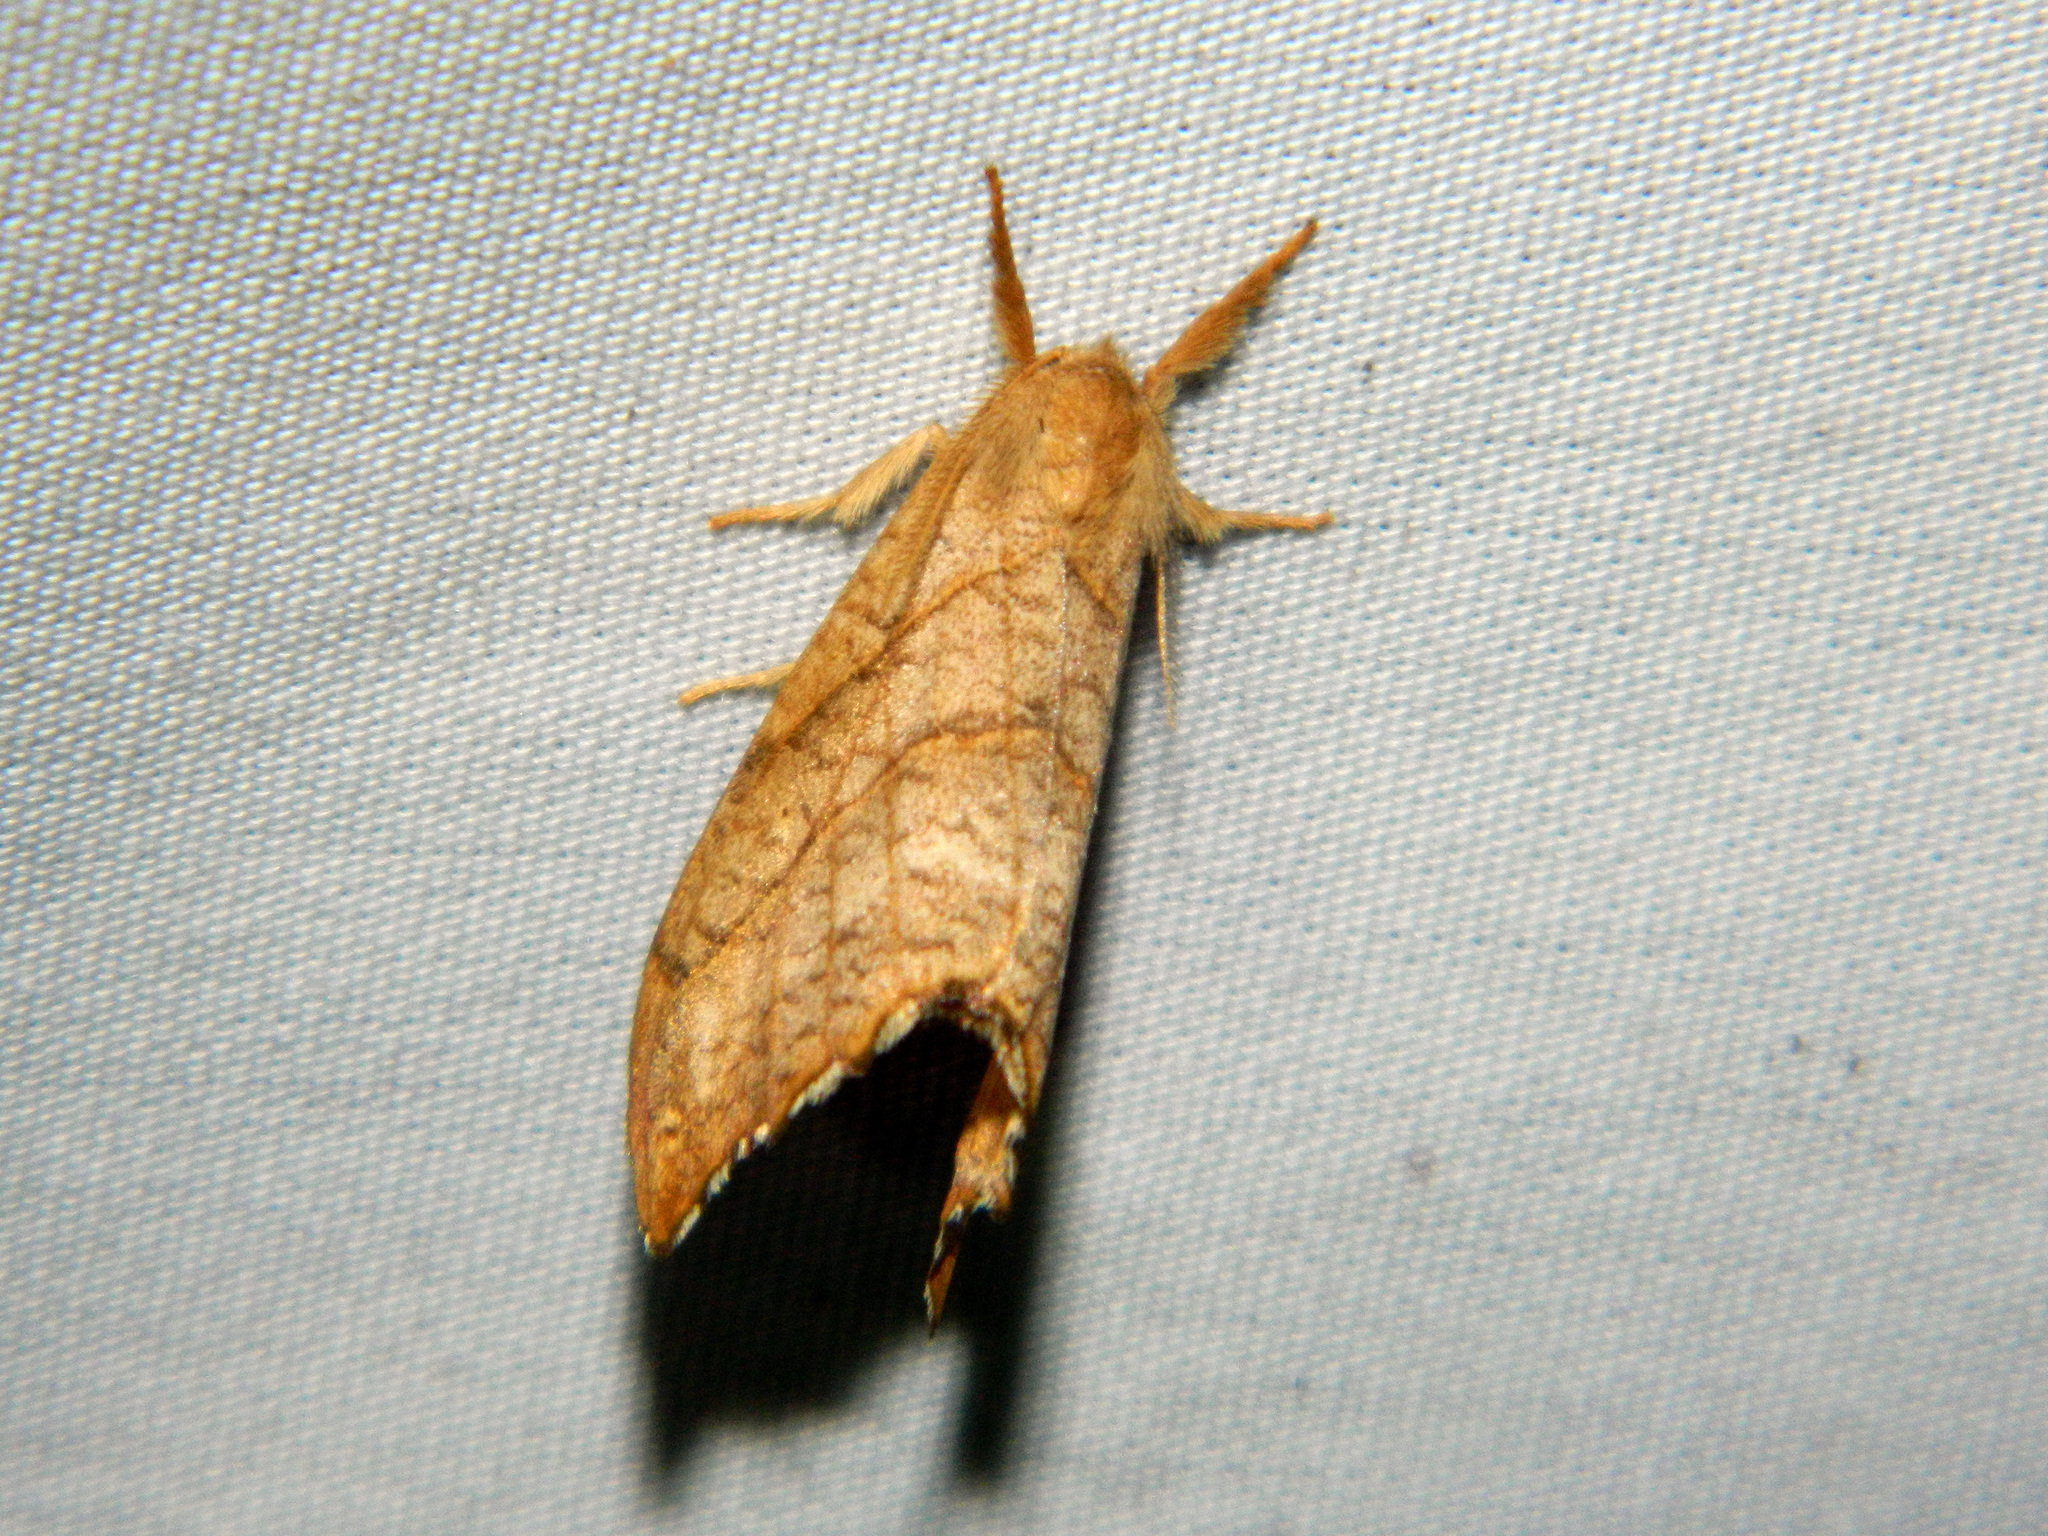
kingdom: Animalia
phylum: Arthropoda
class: Insecta
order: Lepidoptera
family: Drepanidae
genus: Falcaria
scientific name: Falcaria bilineata
